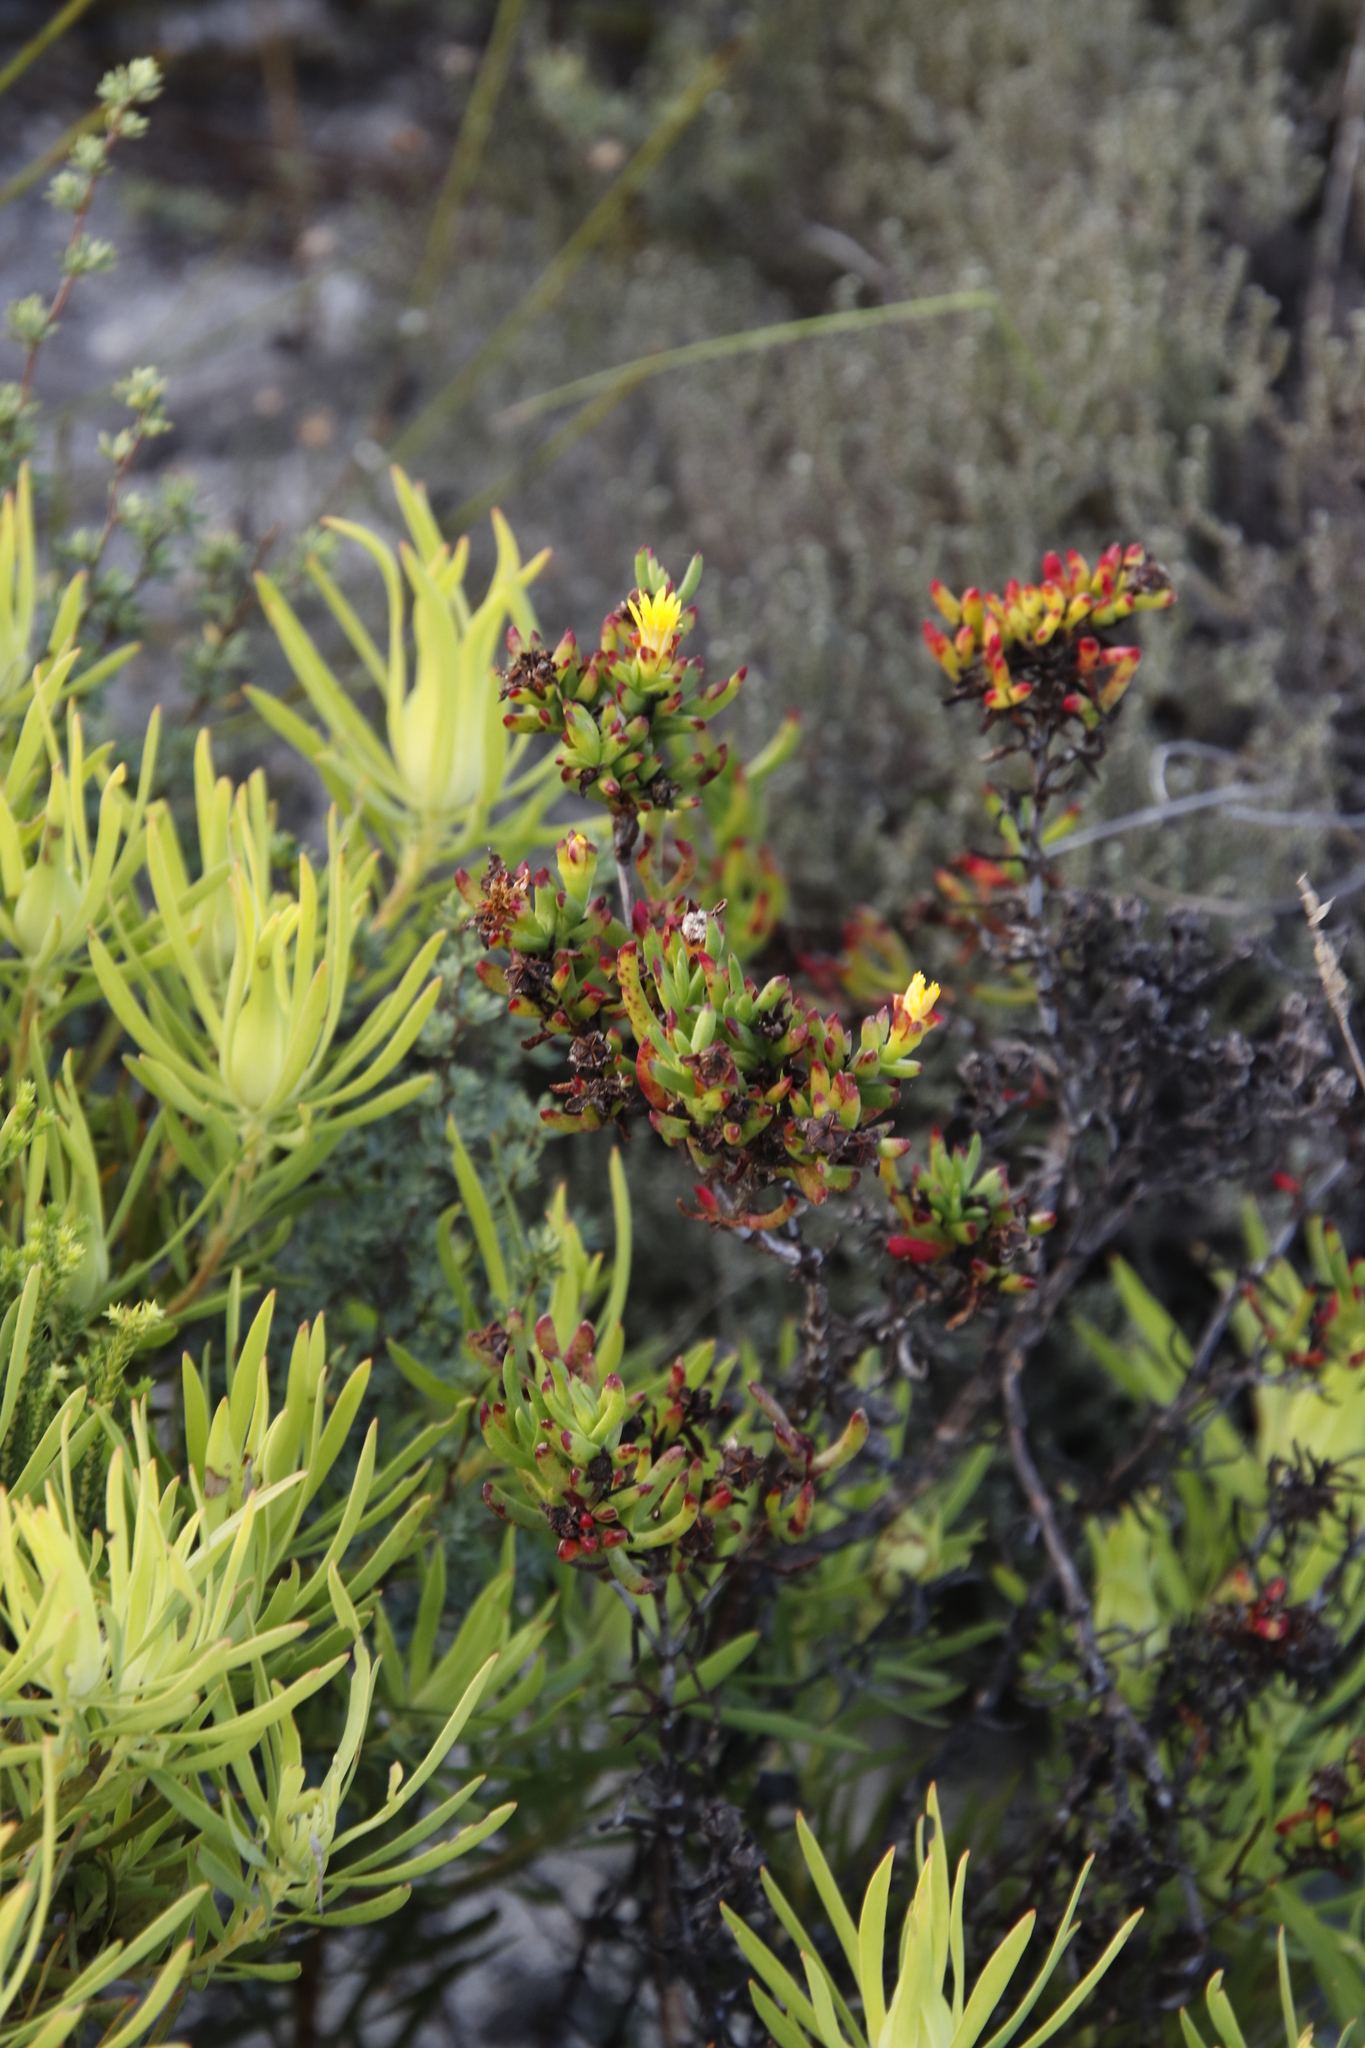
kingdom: Plantae
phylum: Tracheophyta
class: Magnoliopsida
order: Caryophyllales
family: Aizoaceae
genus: Lampranthus
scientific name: Lampranthus promontorii
